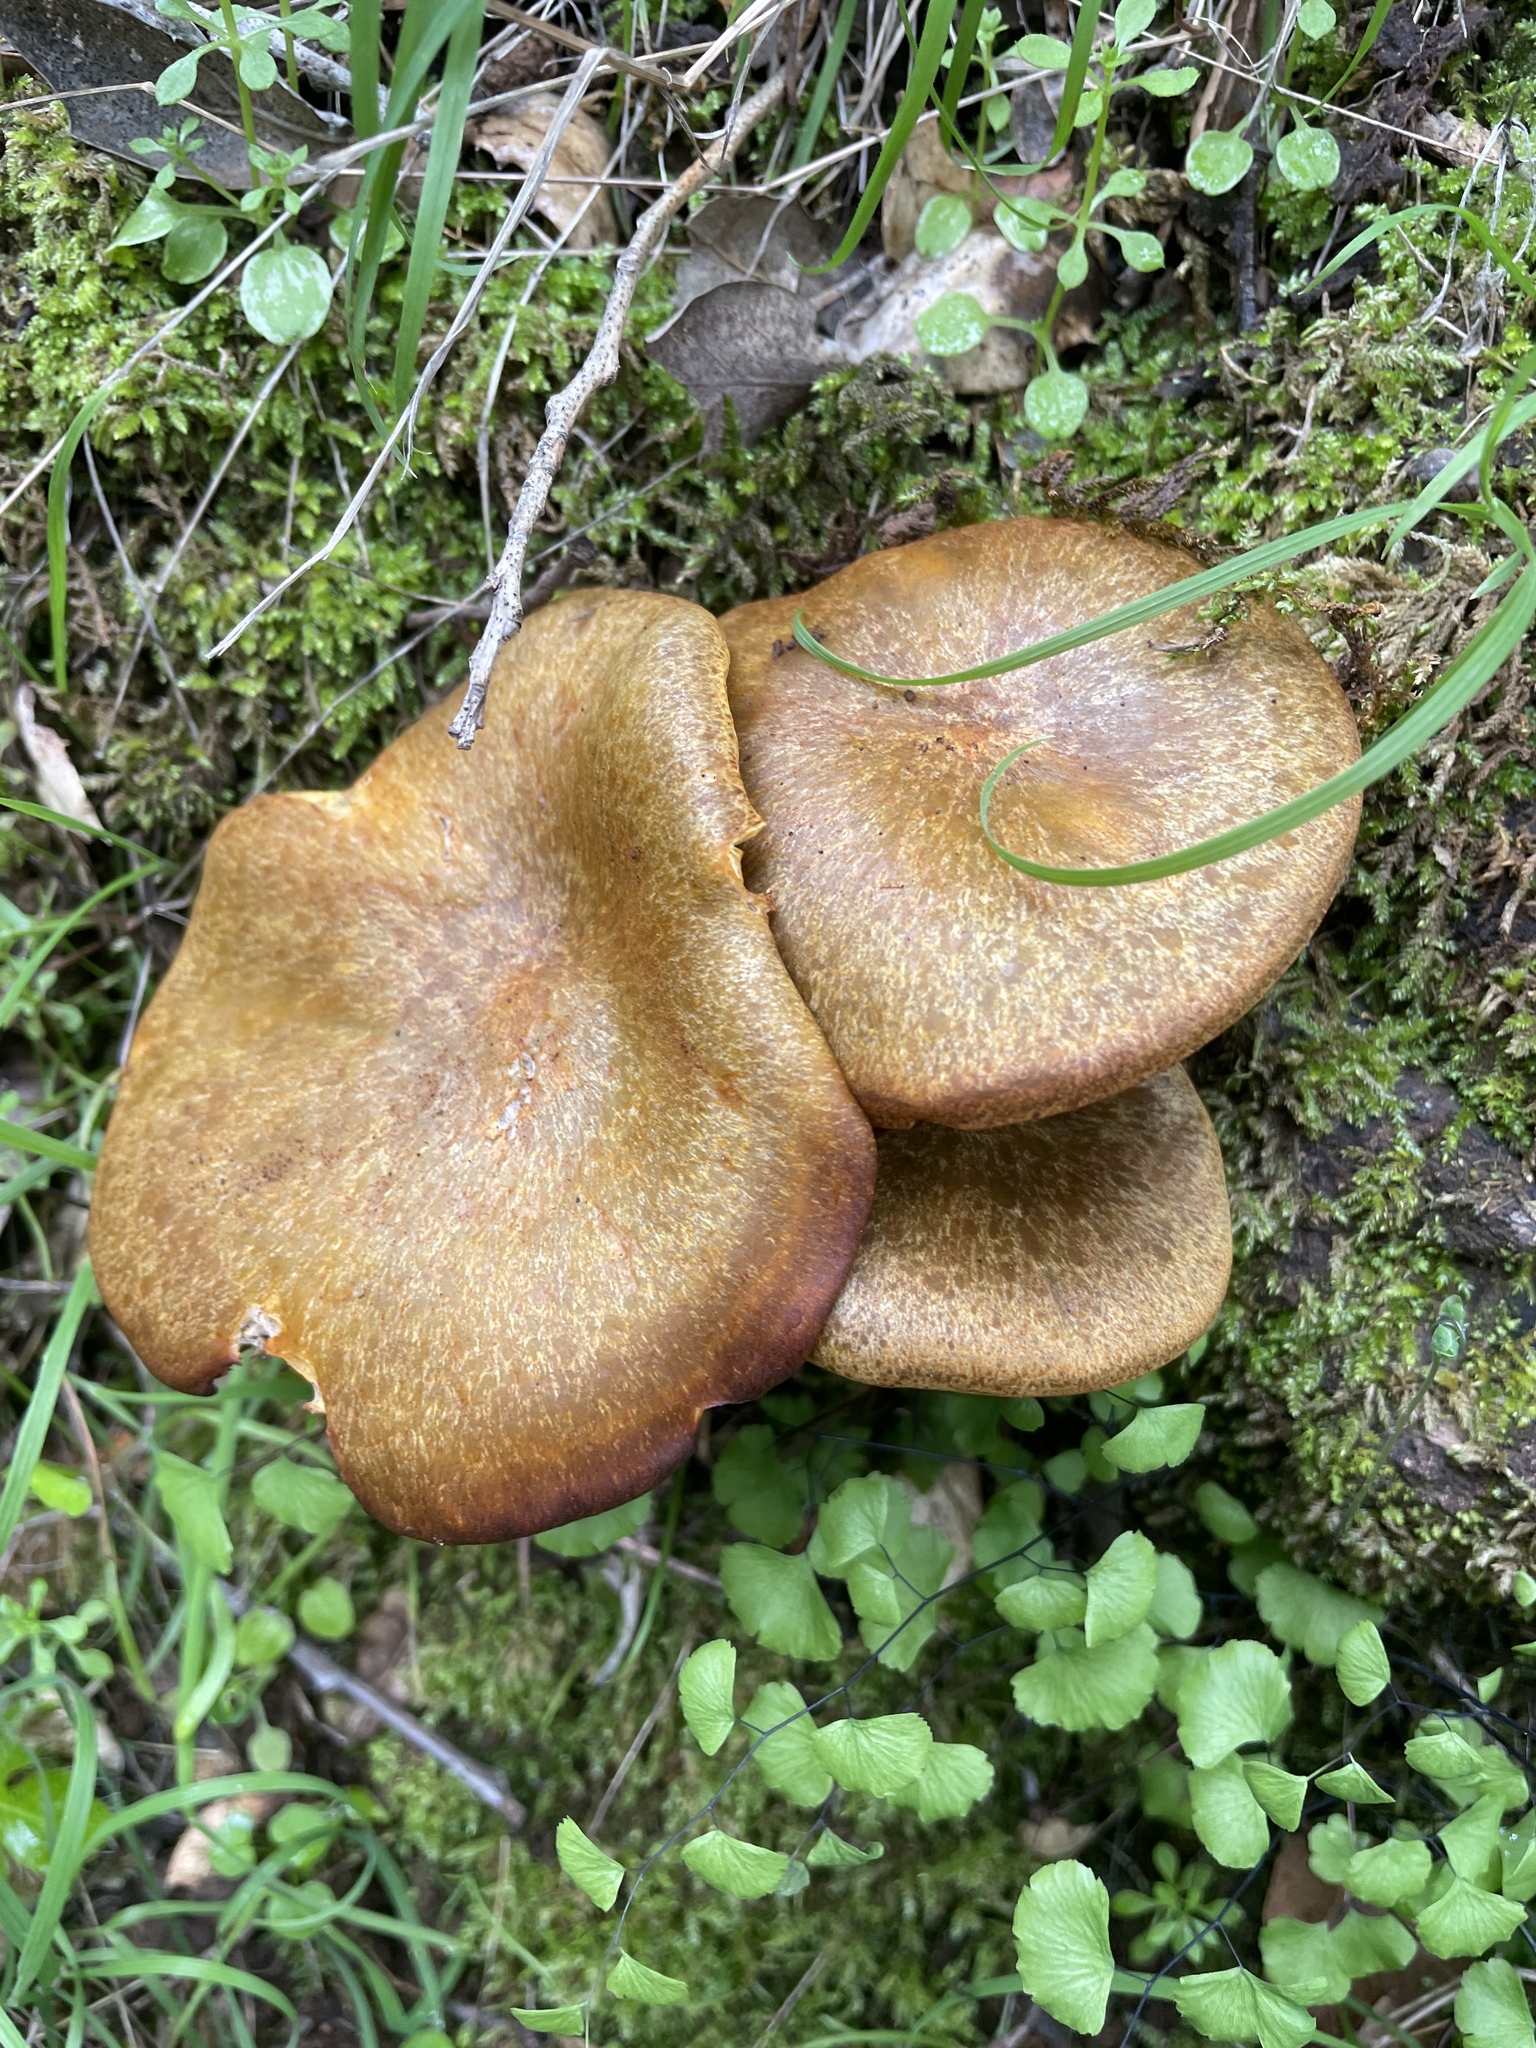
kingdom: Fungi
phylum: Basidiomycota
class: Agaricomycetes
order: Agaricales
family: Omphalotaceae
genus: Omphalotus
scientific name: Omphalotus olivascens
